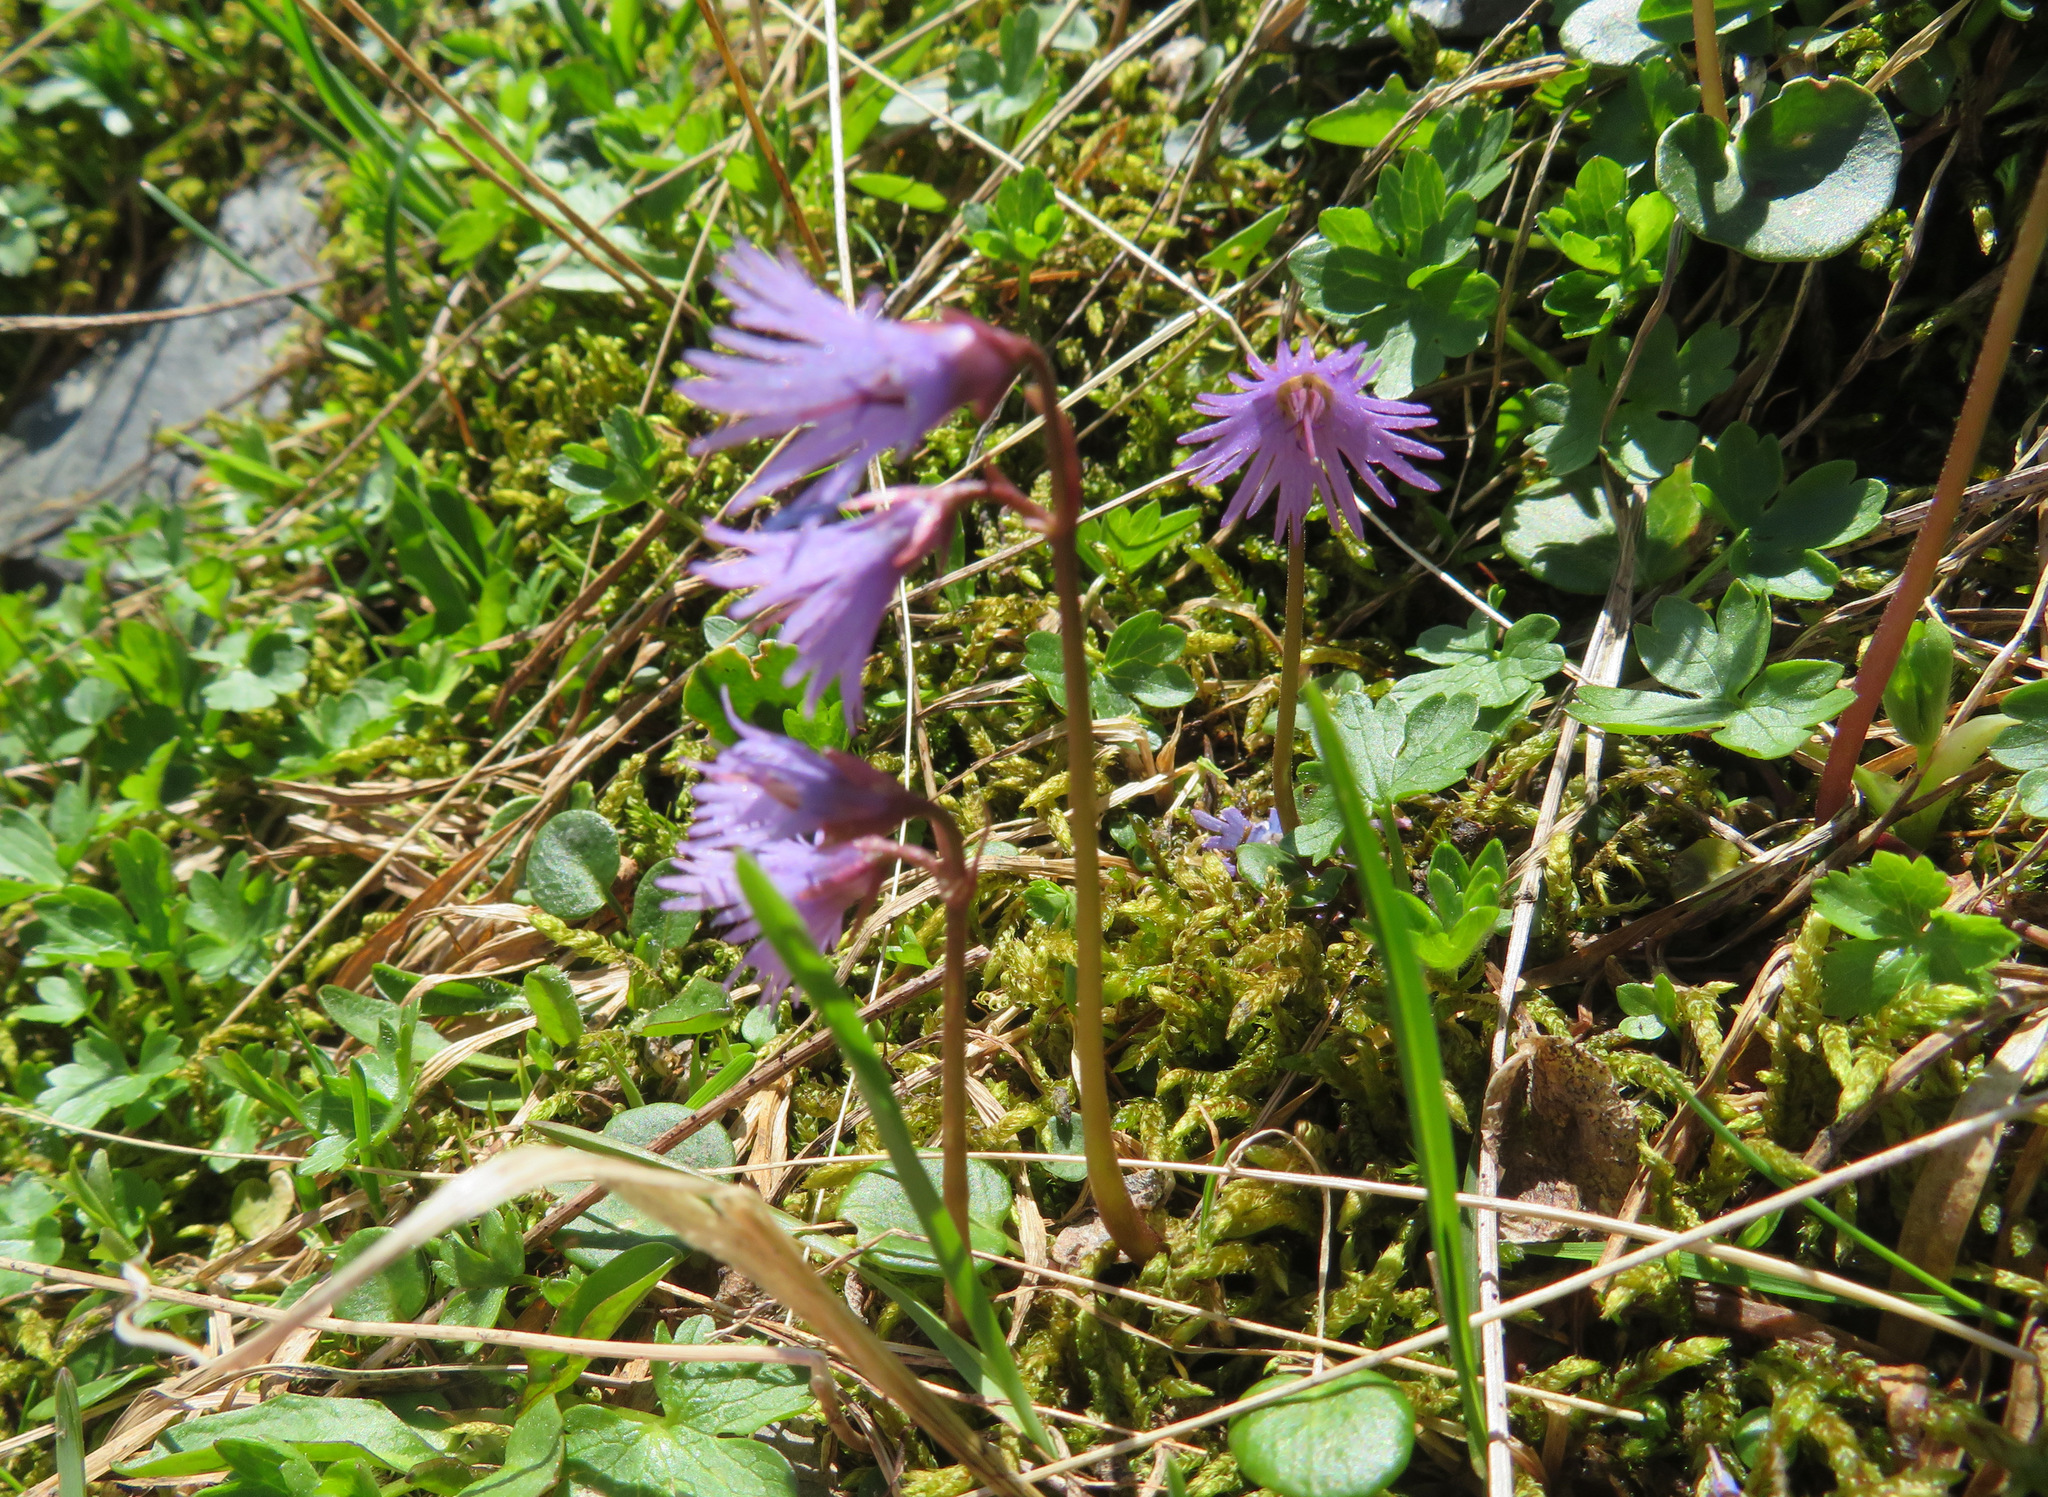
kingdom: Plantae
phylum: Tracheophyta
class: Magnoliopsida
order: Ericales
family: Primulaceae
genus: Soldanella
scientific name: Soldanella alpina
